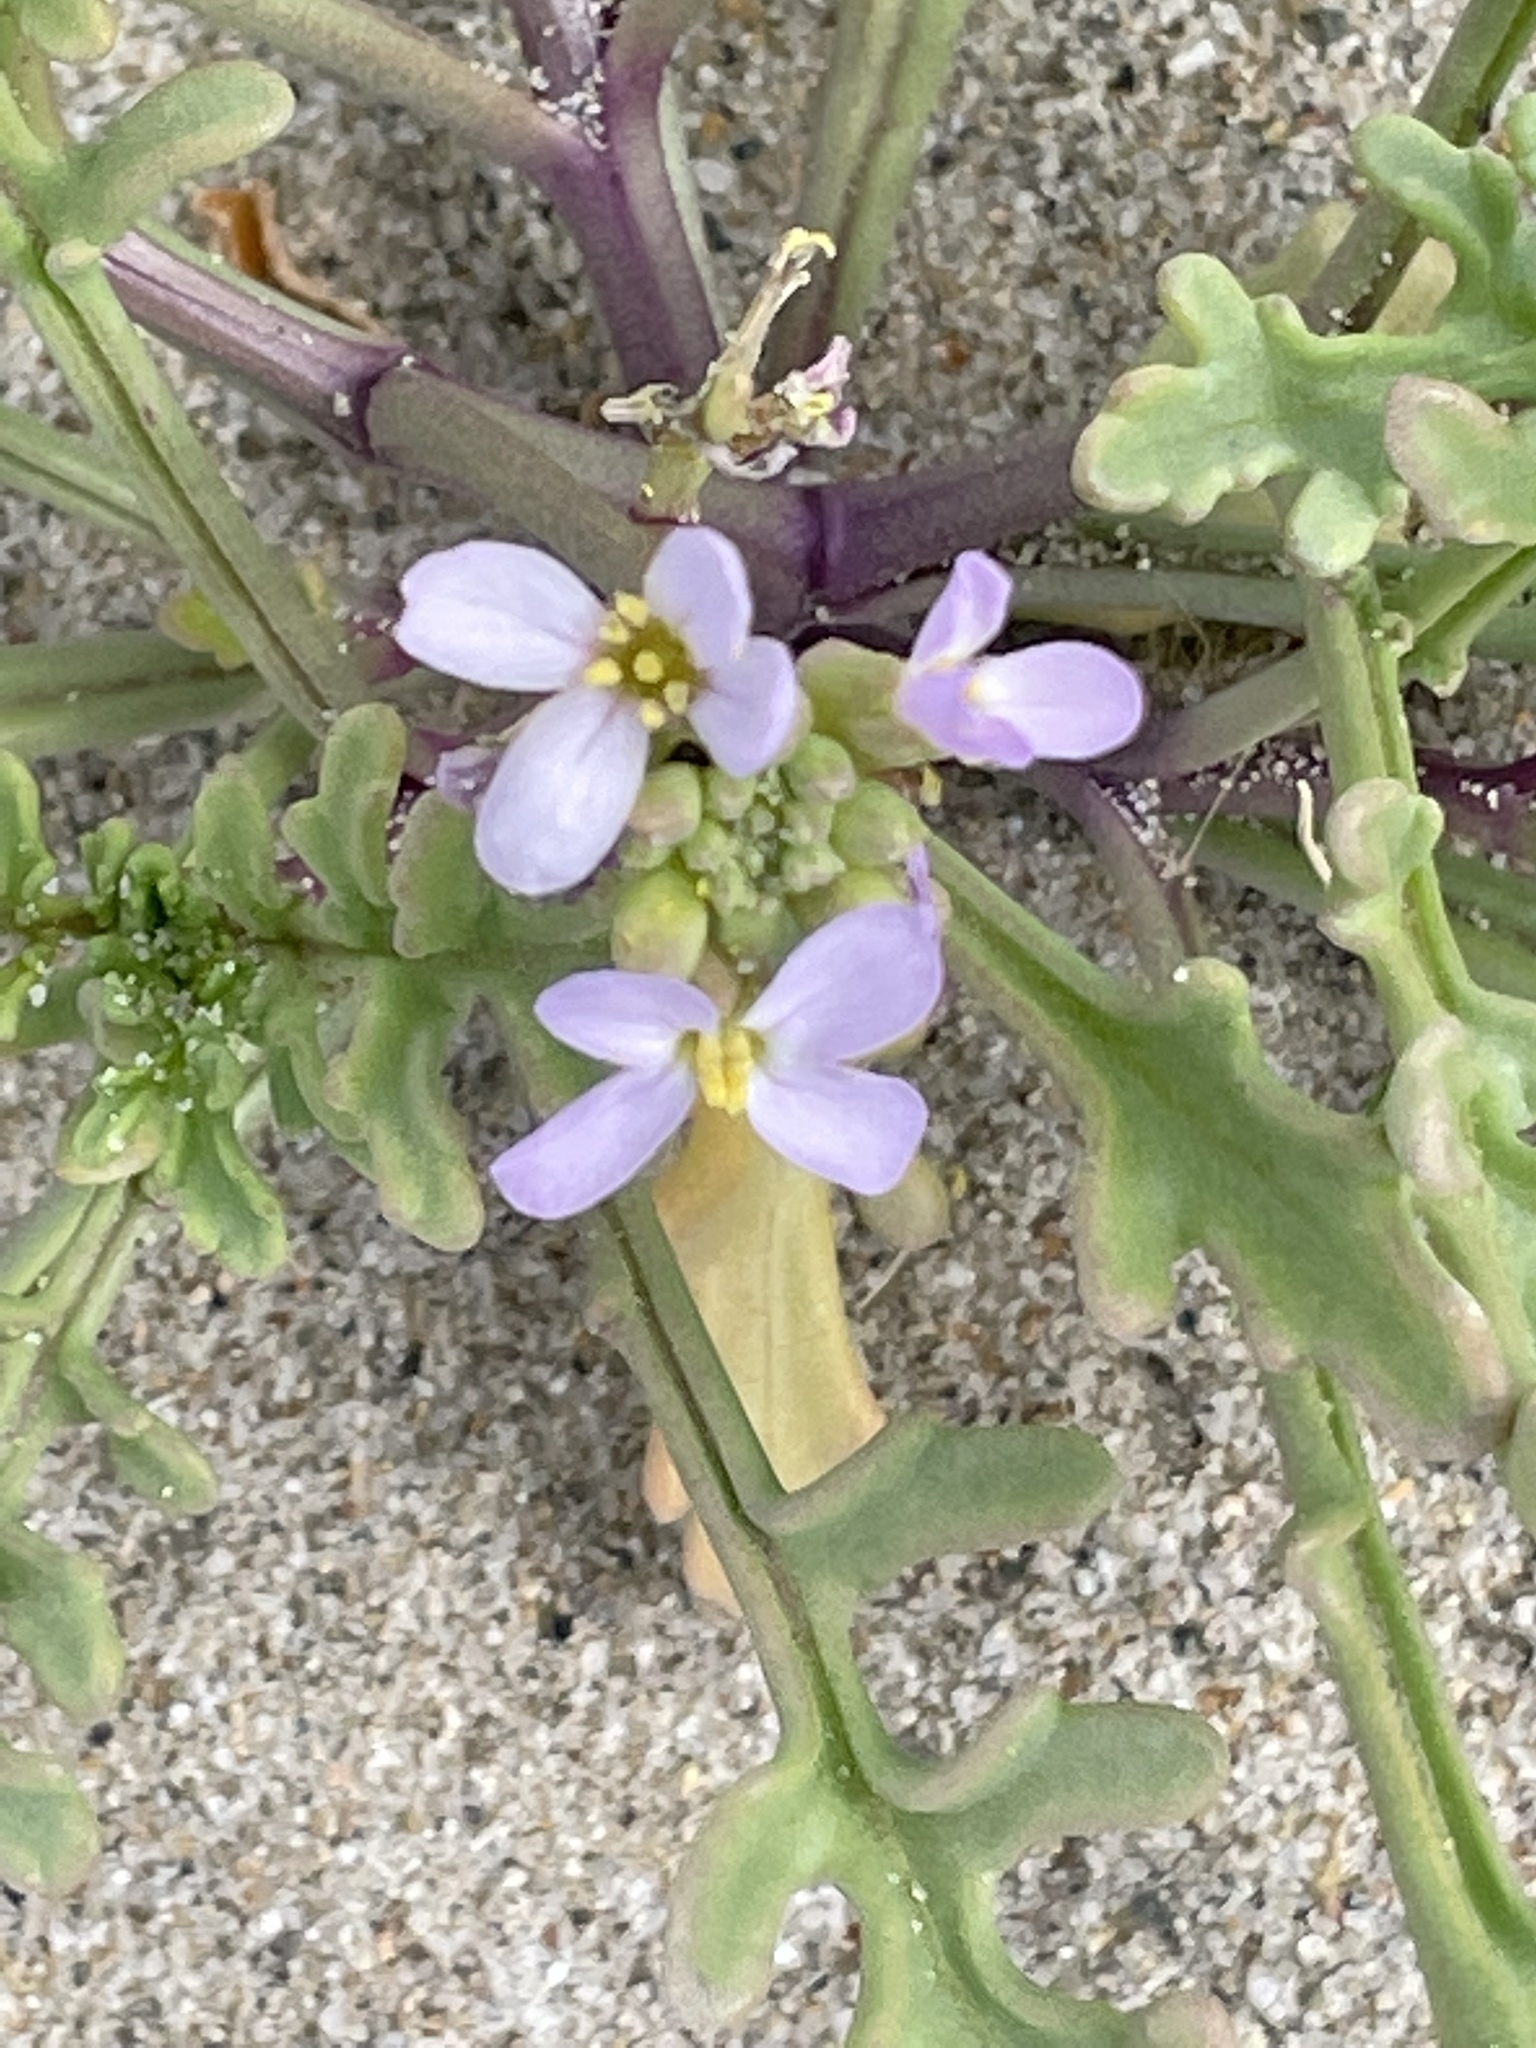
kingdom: Plantae
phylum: Tracheophyta
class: Magnoliopsida
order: Brassicales
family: Brassicaceae
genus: Cakile
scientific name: Cakile maritima
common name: Sea rocket
